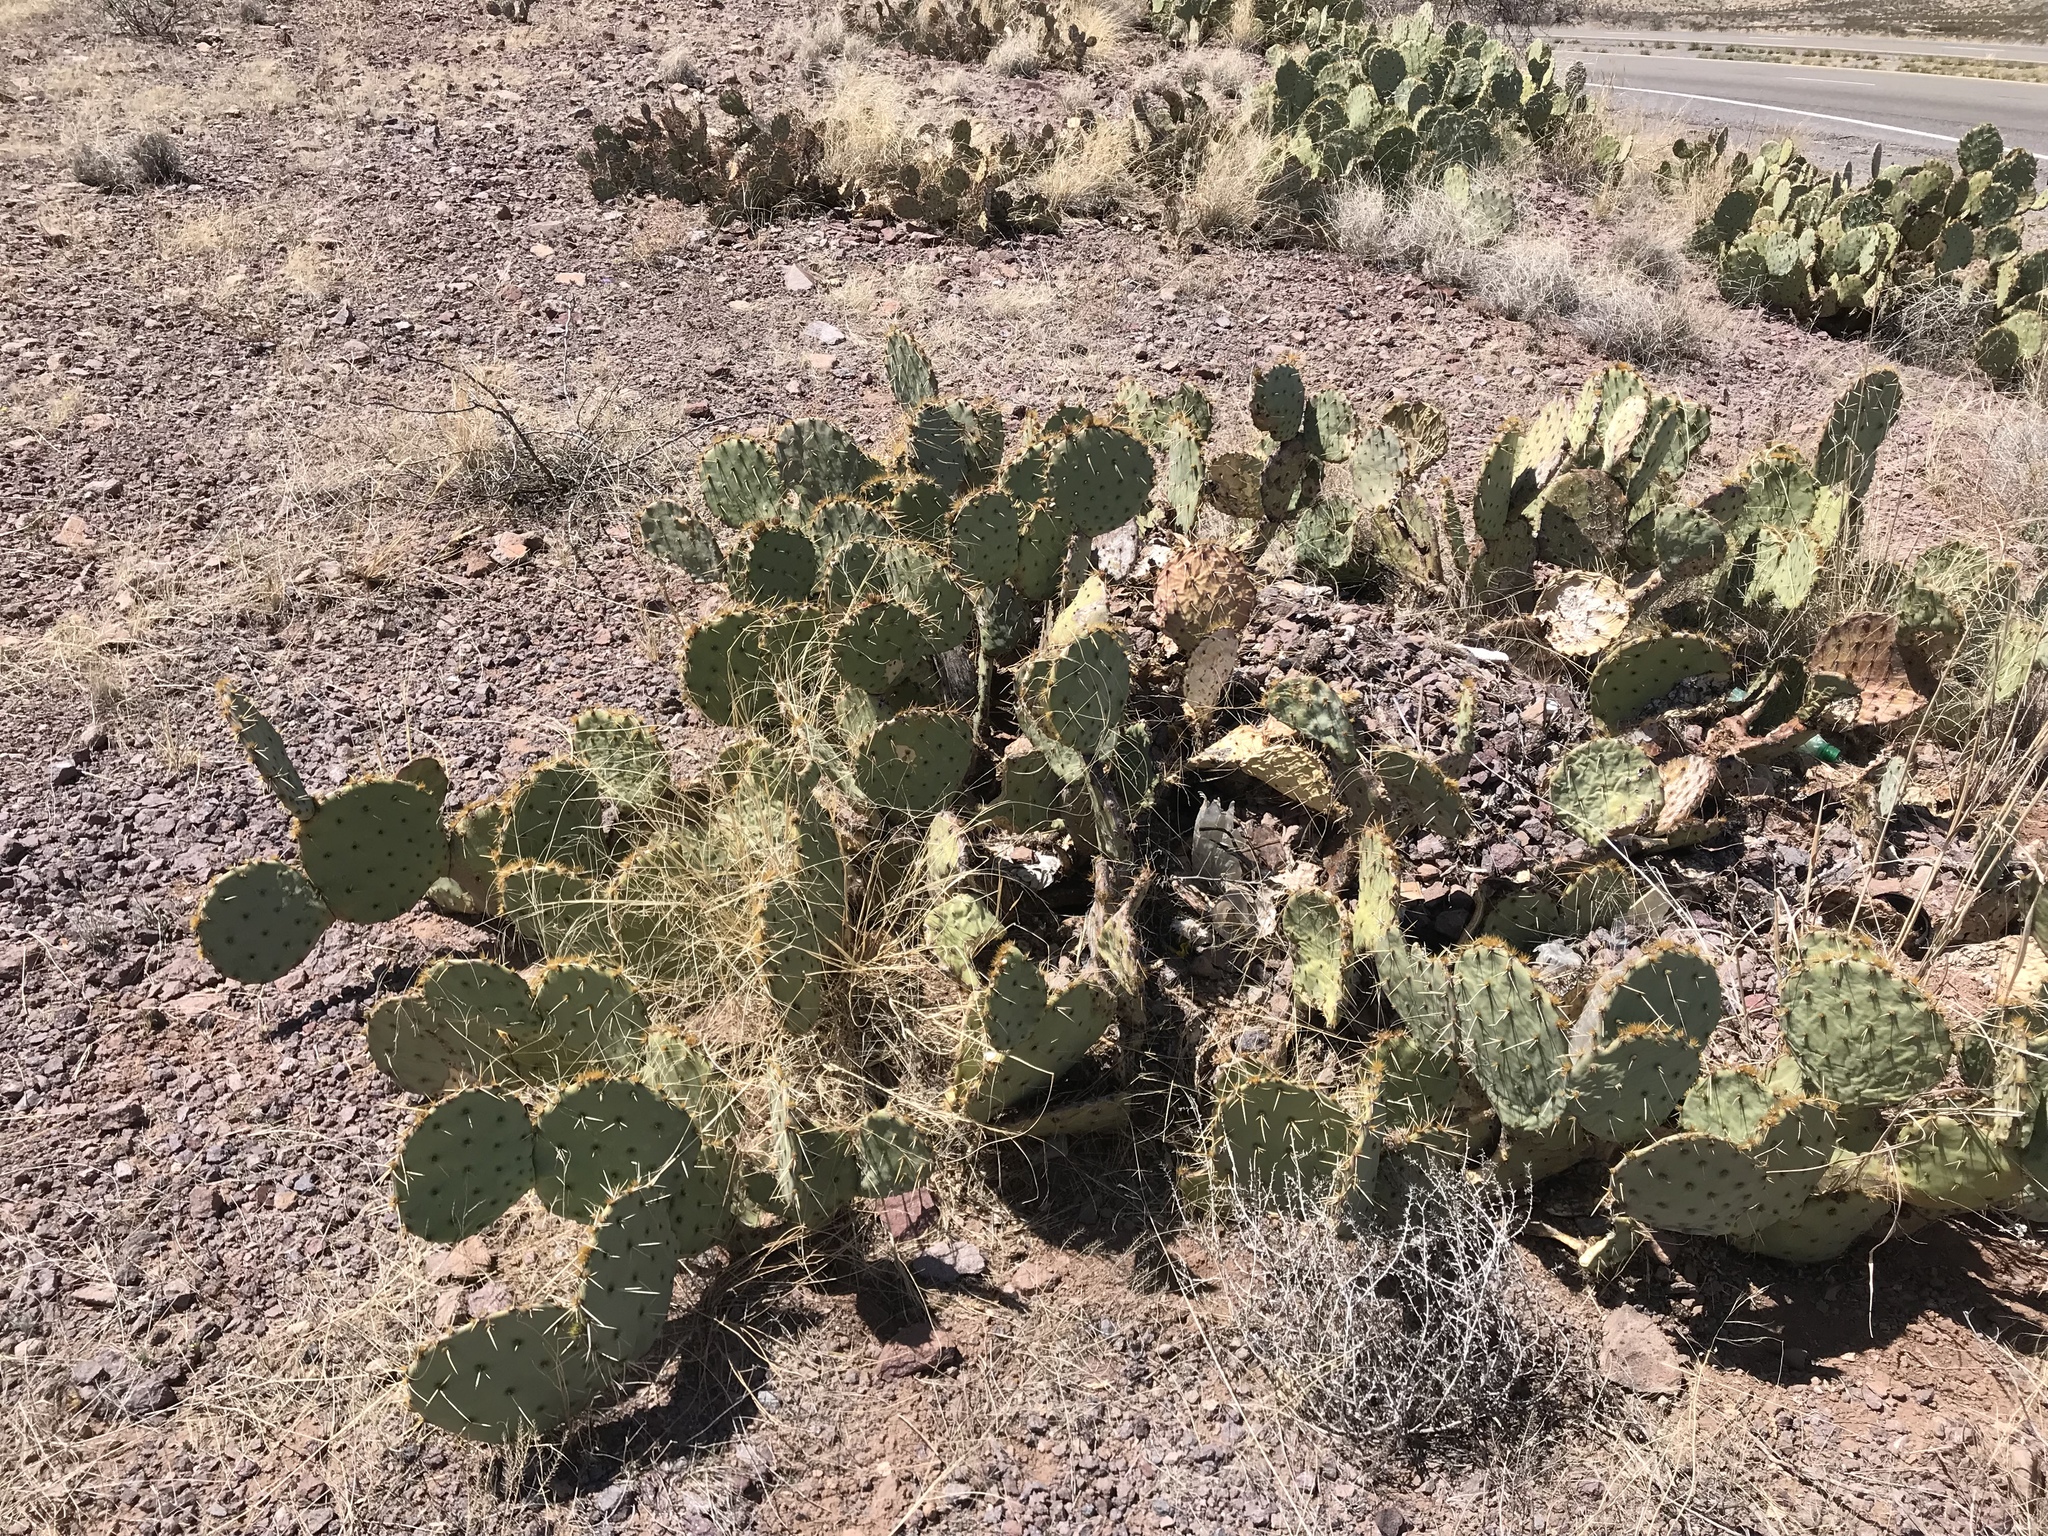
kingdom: Plantae
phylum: Tracheophyta
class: Magnoliopsida
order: Caryophyllales
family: Cactaceae
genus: Opuntia
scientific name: Opuntia phaeacantha
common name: New mexico prickly-pear
